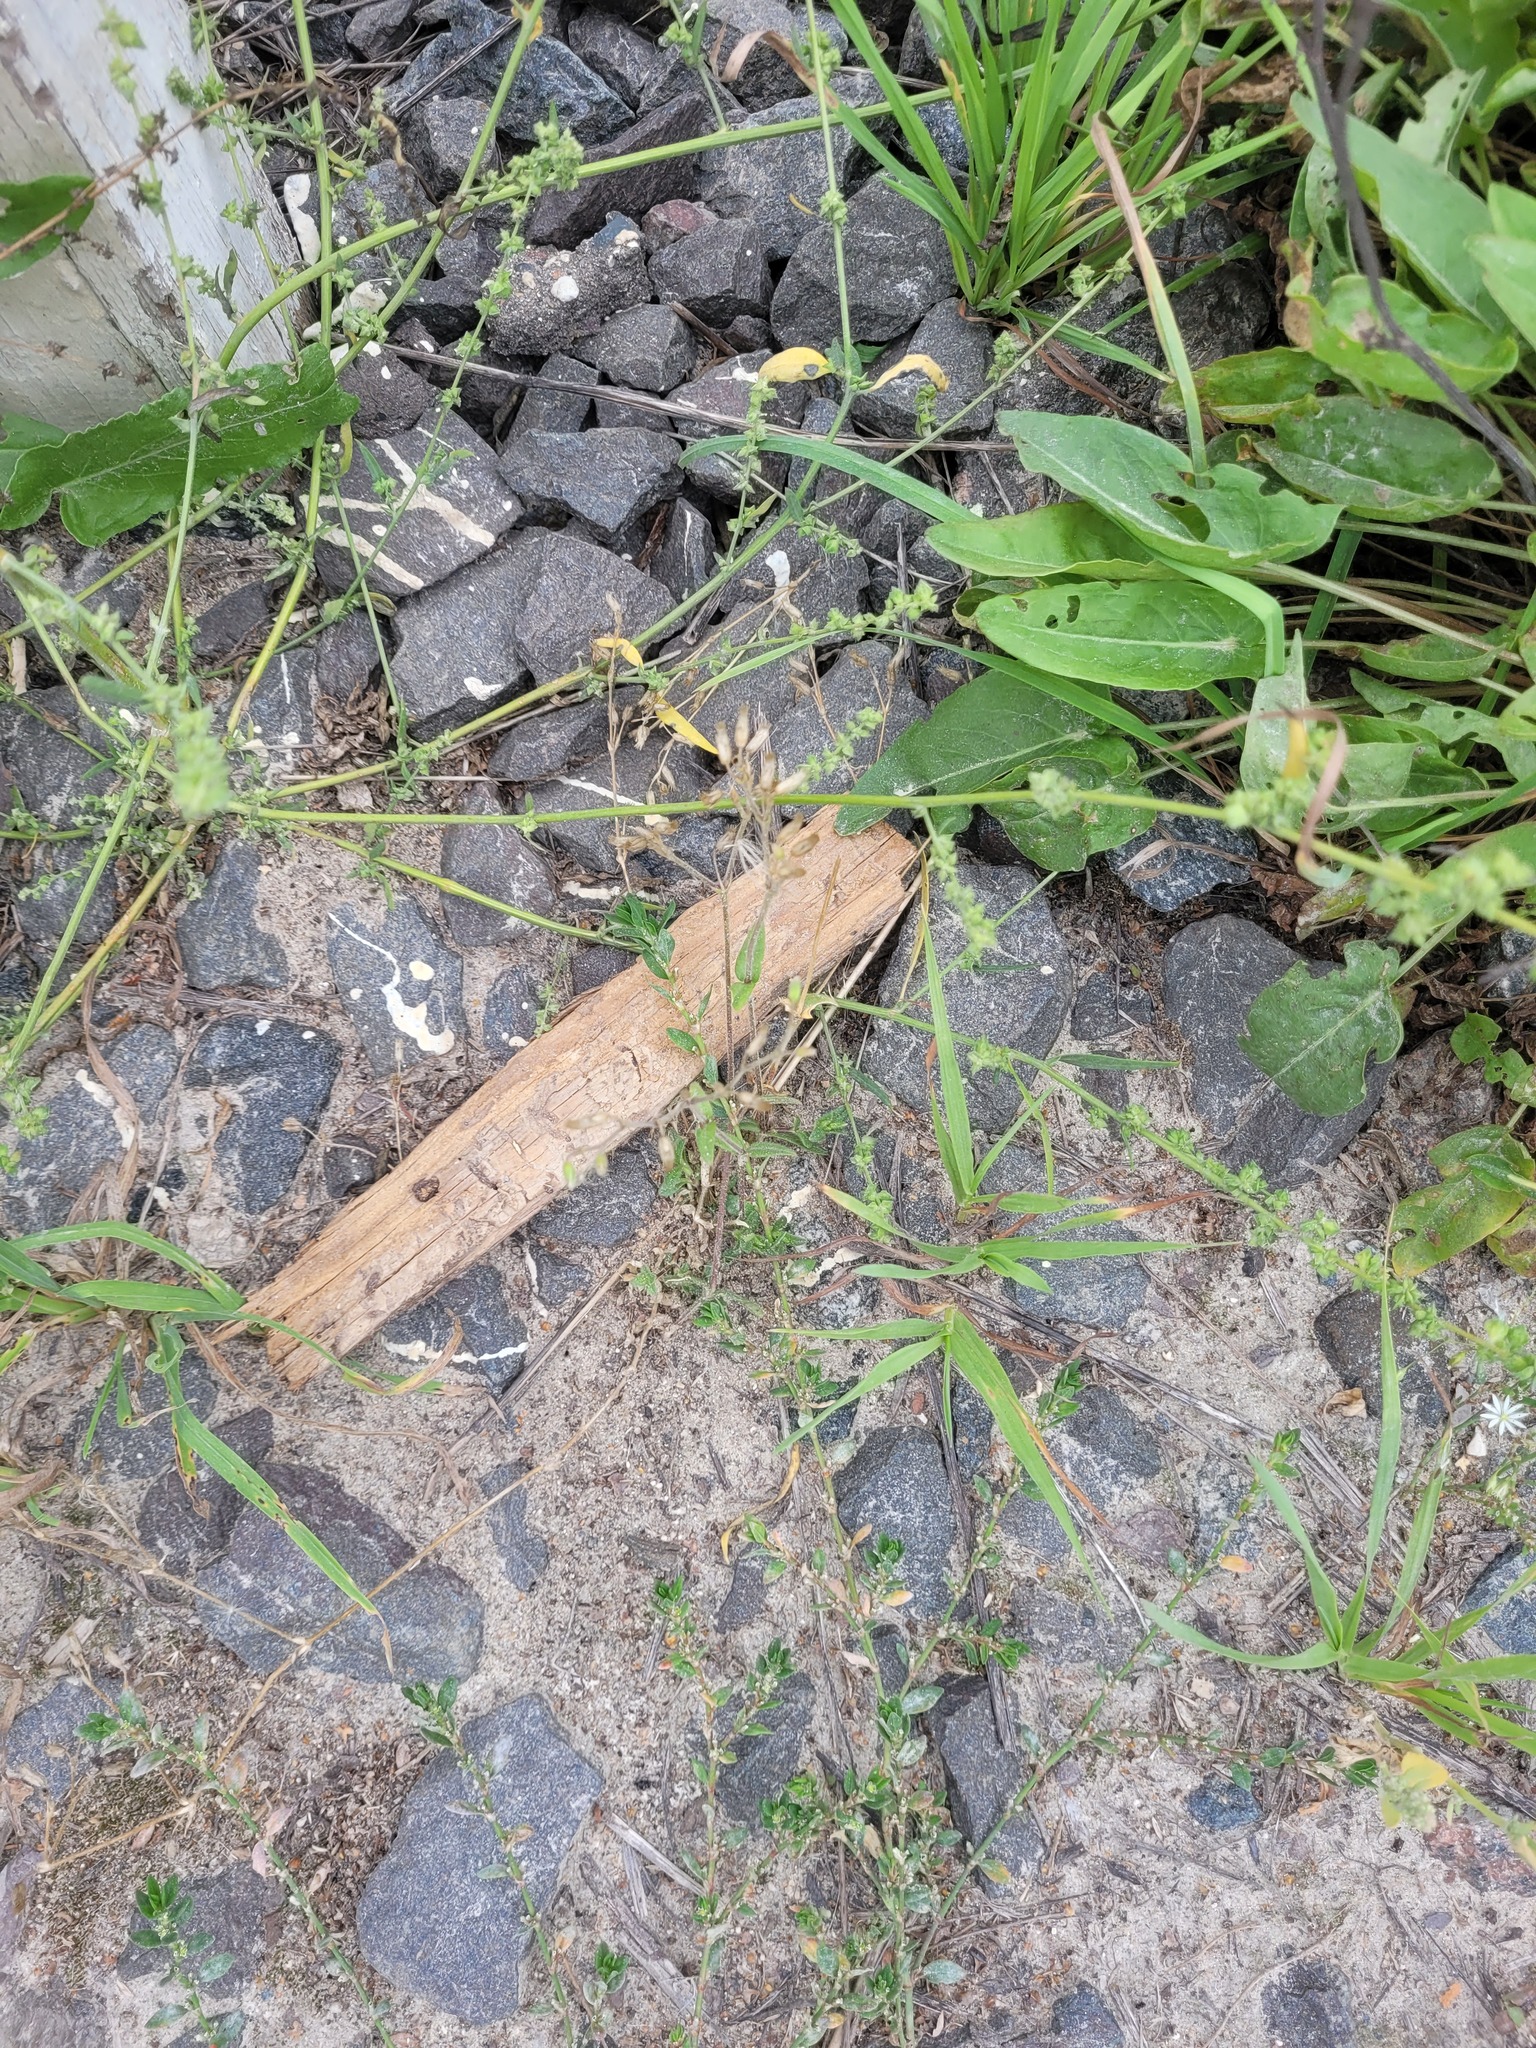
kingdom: Plantae
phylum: Tracheophyta
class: Magnoliopsida
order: Caryophyllales
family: Caryophyllaceae
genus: Cerastium
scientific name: Cerastium holosteoides
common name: Big chickweed
